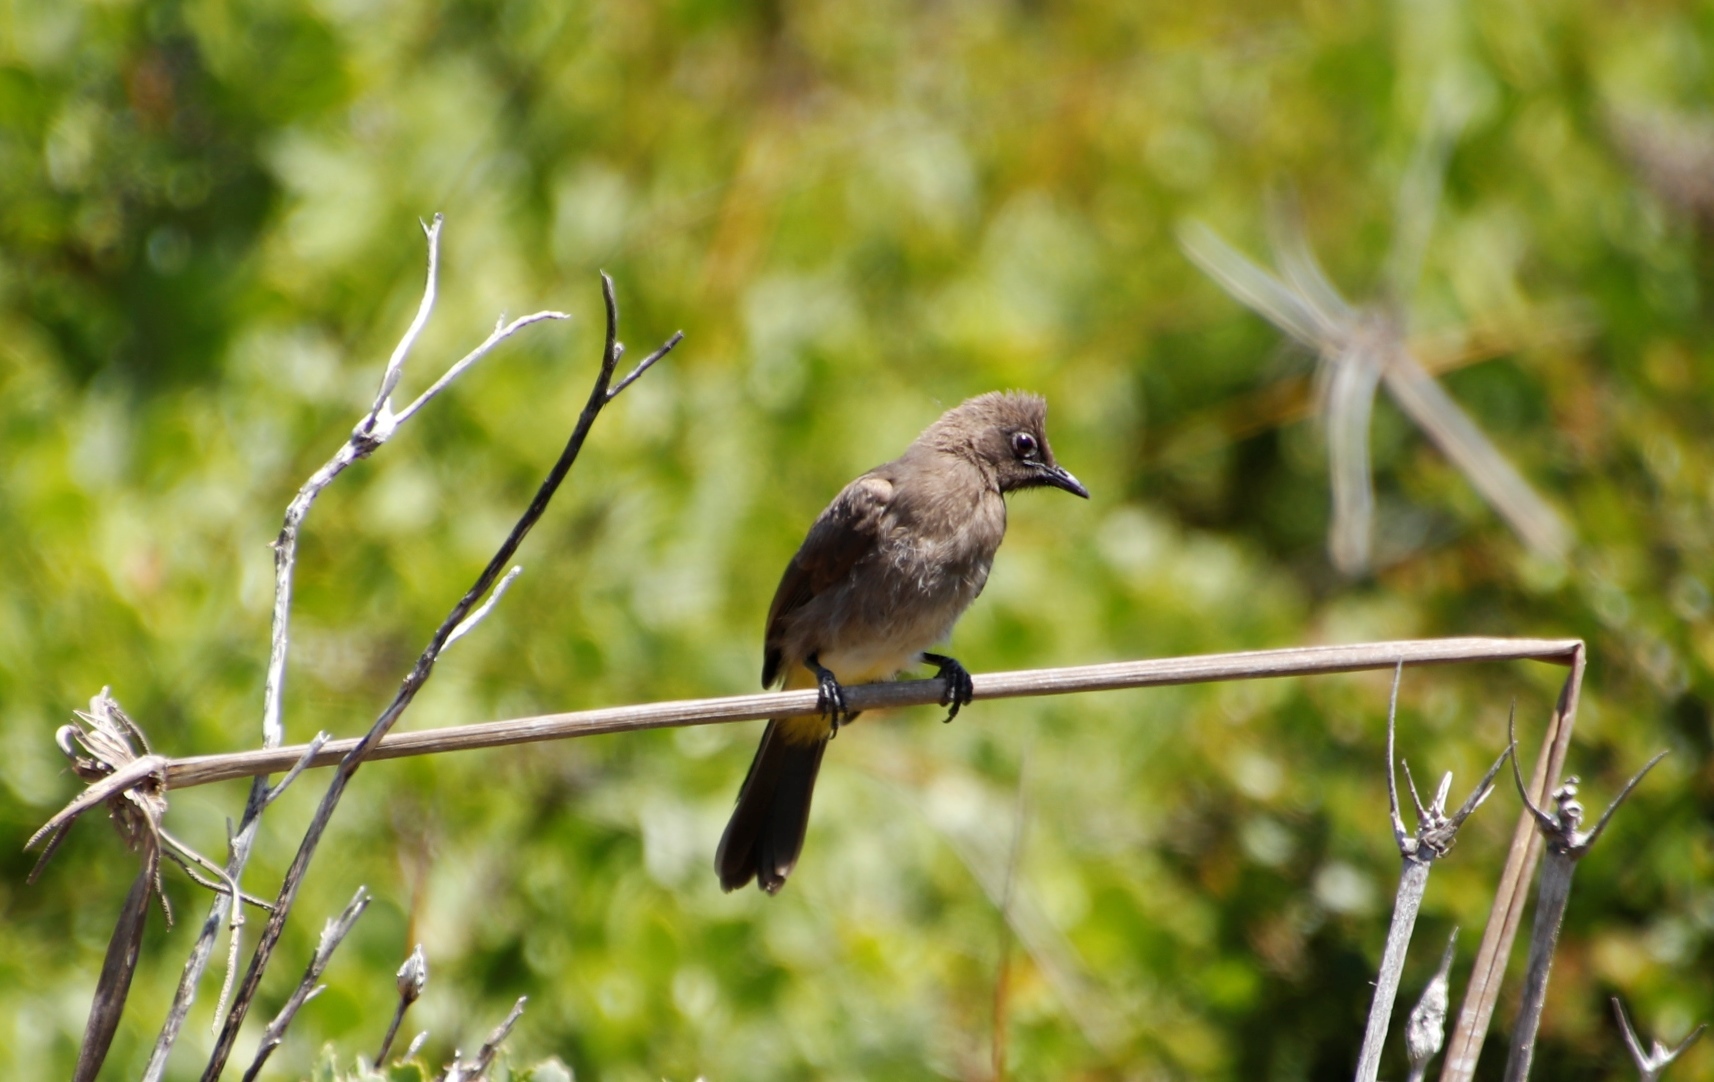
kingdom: Animalia
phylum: Chordata
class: Aves
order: Passeriformes
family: Pycnonotidae
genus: Pycnonotus
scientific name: Pycnonotus capensis
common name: Cape bulbul
